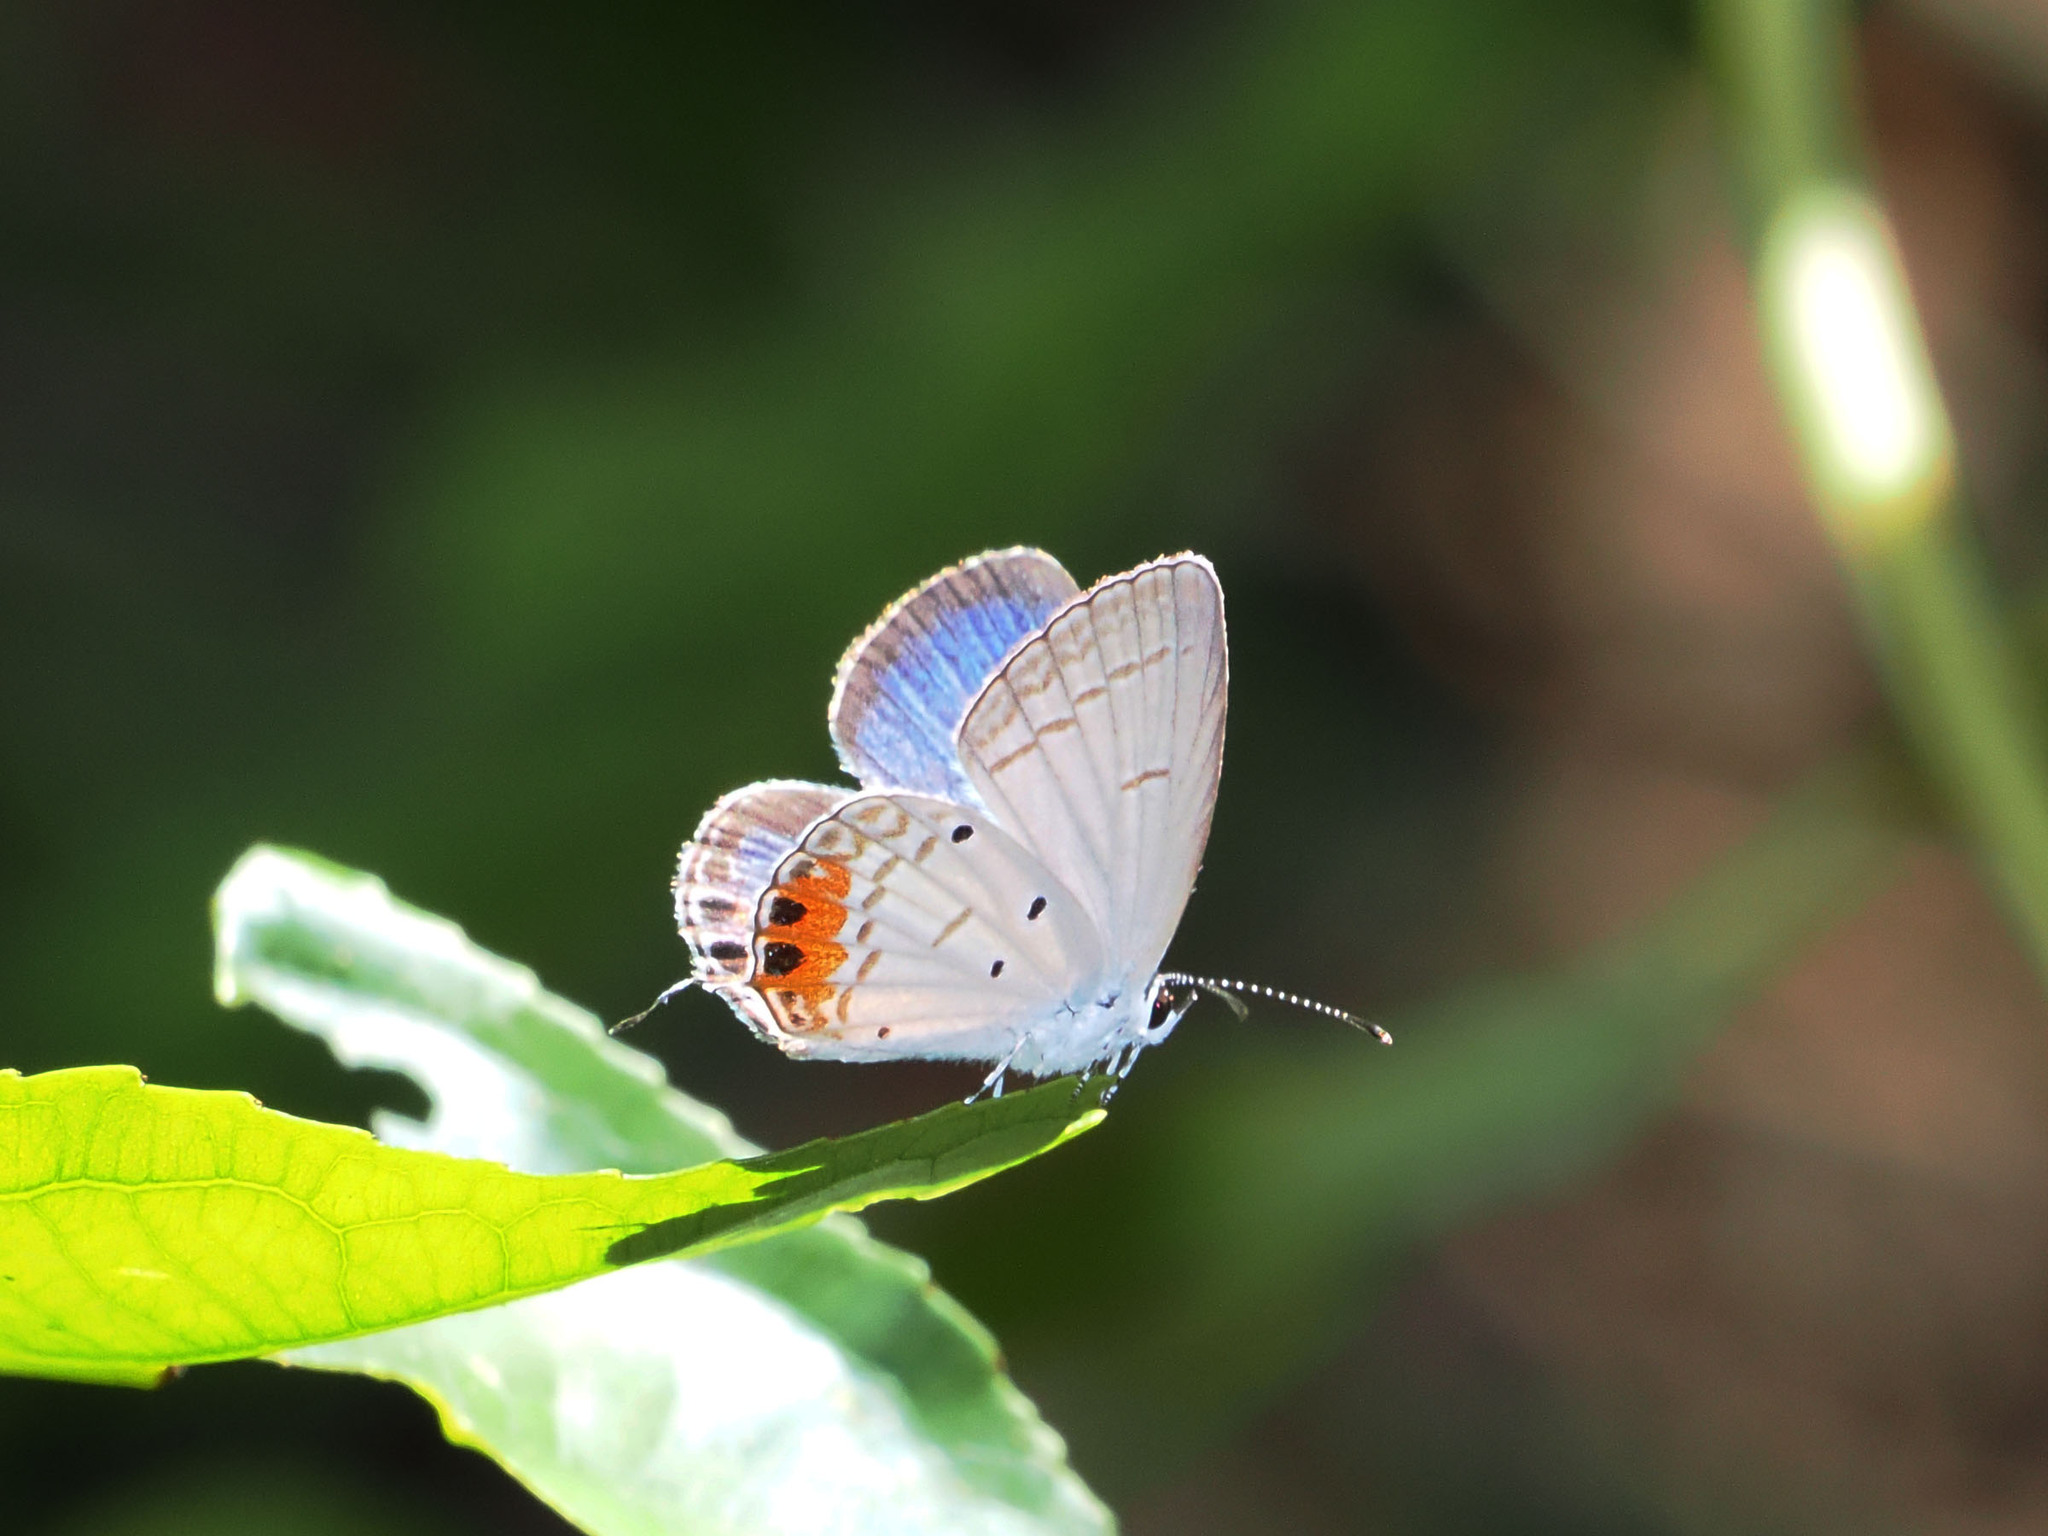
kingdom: Animalia
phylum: Arthropoda
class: Insecta
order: Lepidoptera
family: Lycaenidae
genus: Everes
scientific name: Everes lacturnus
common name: Orange-tipped pea-blue
